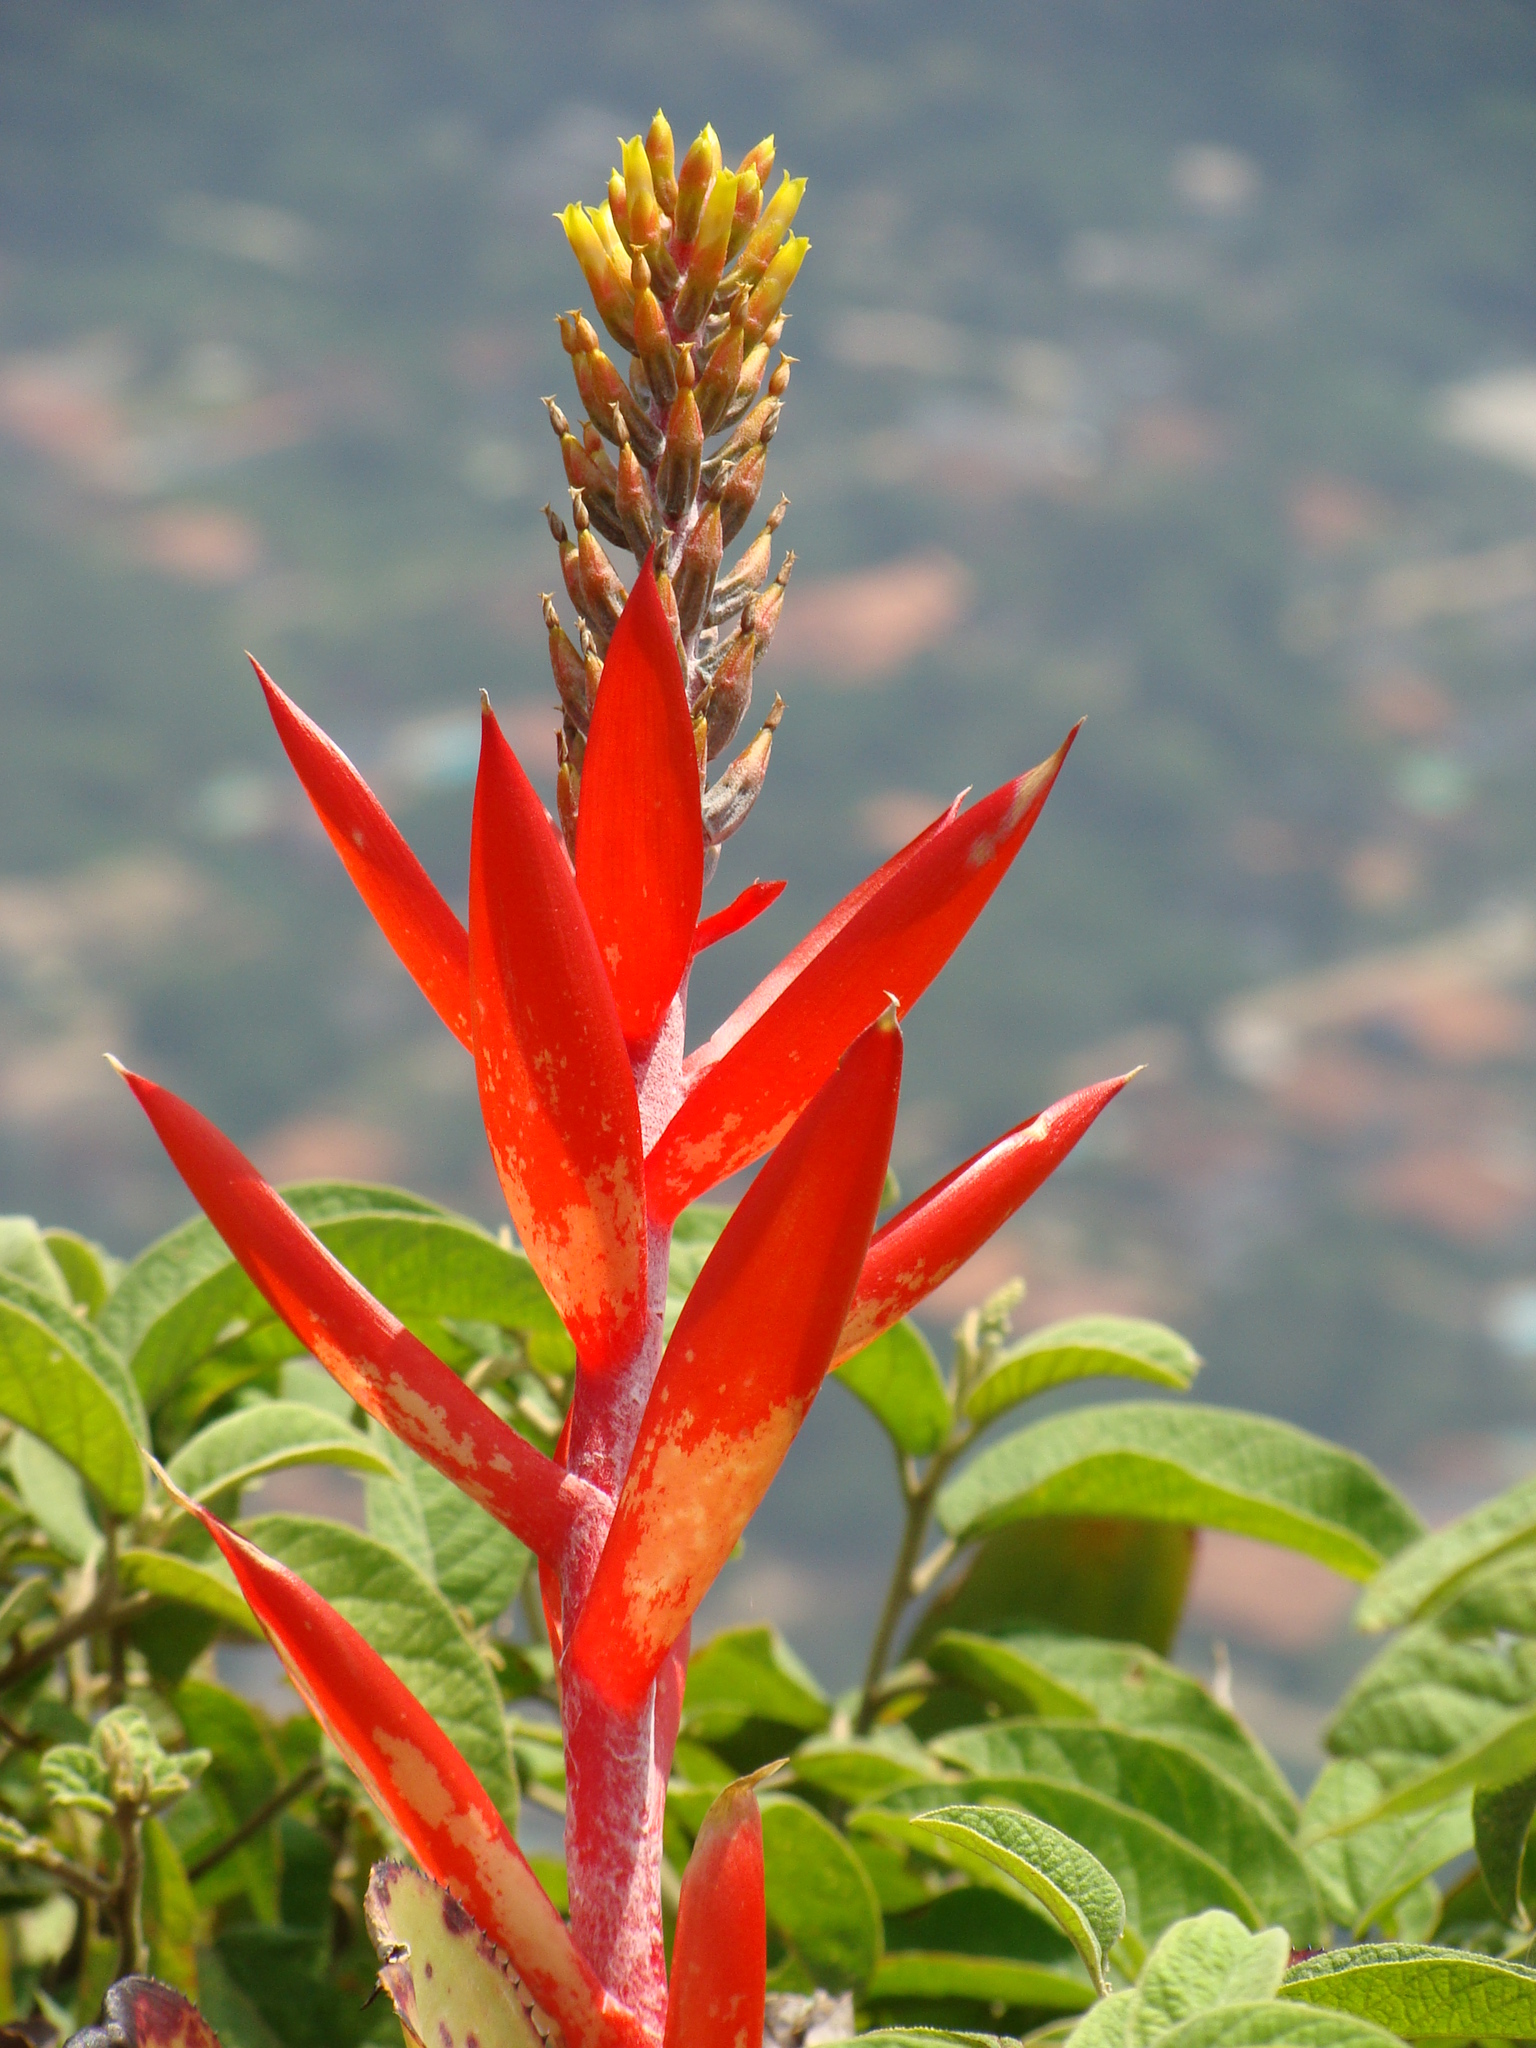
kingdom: Plantae
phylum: Tracheophyta
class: Liliopsida
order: Poales
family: Bromeliaceae
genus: Aechmea
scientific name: Aechmea nudicaulis
